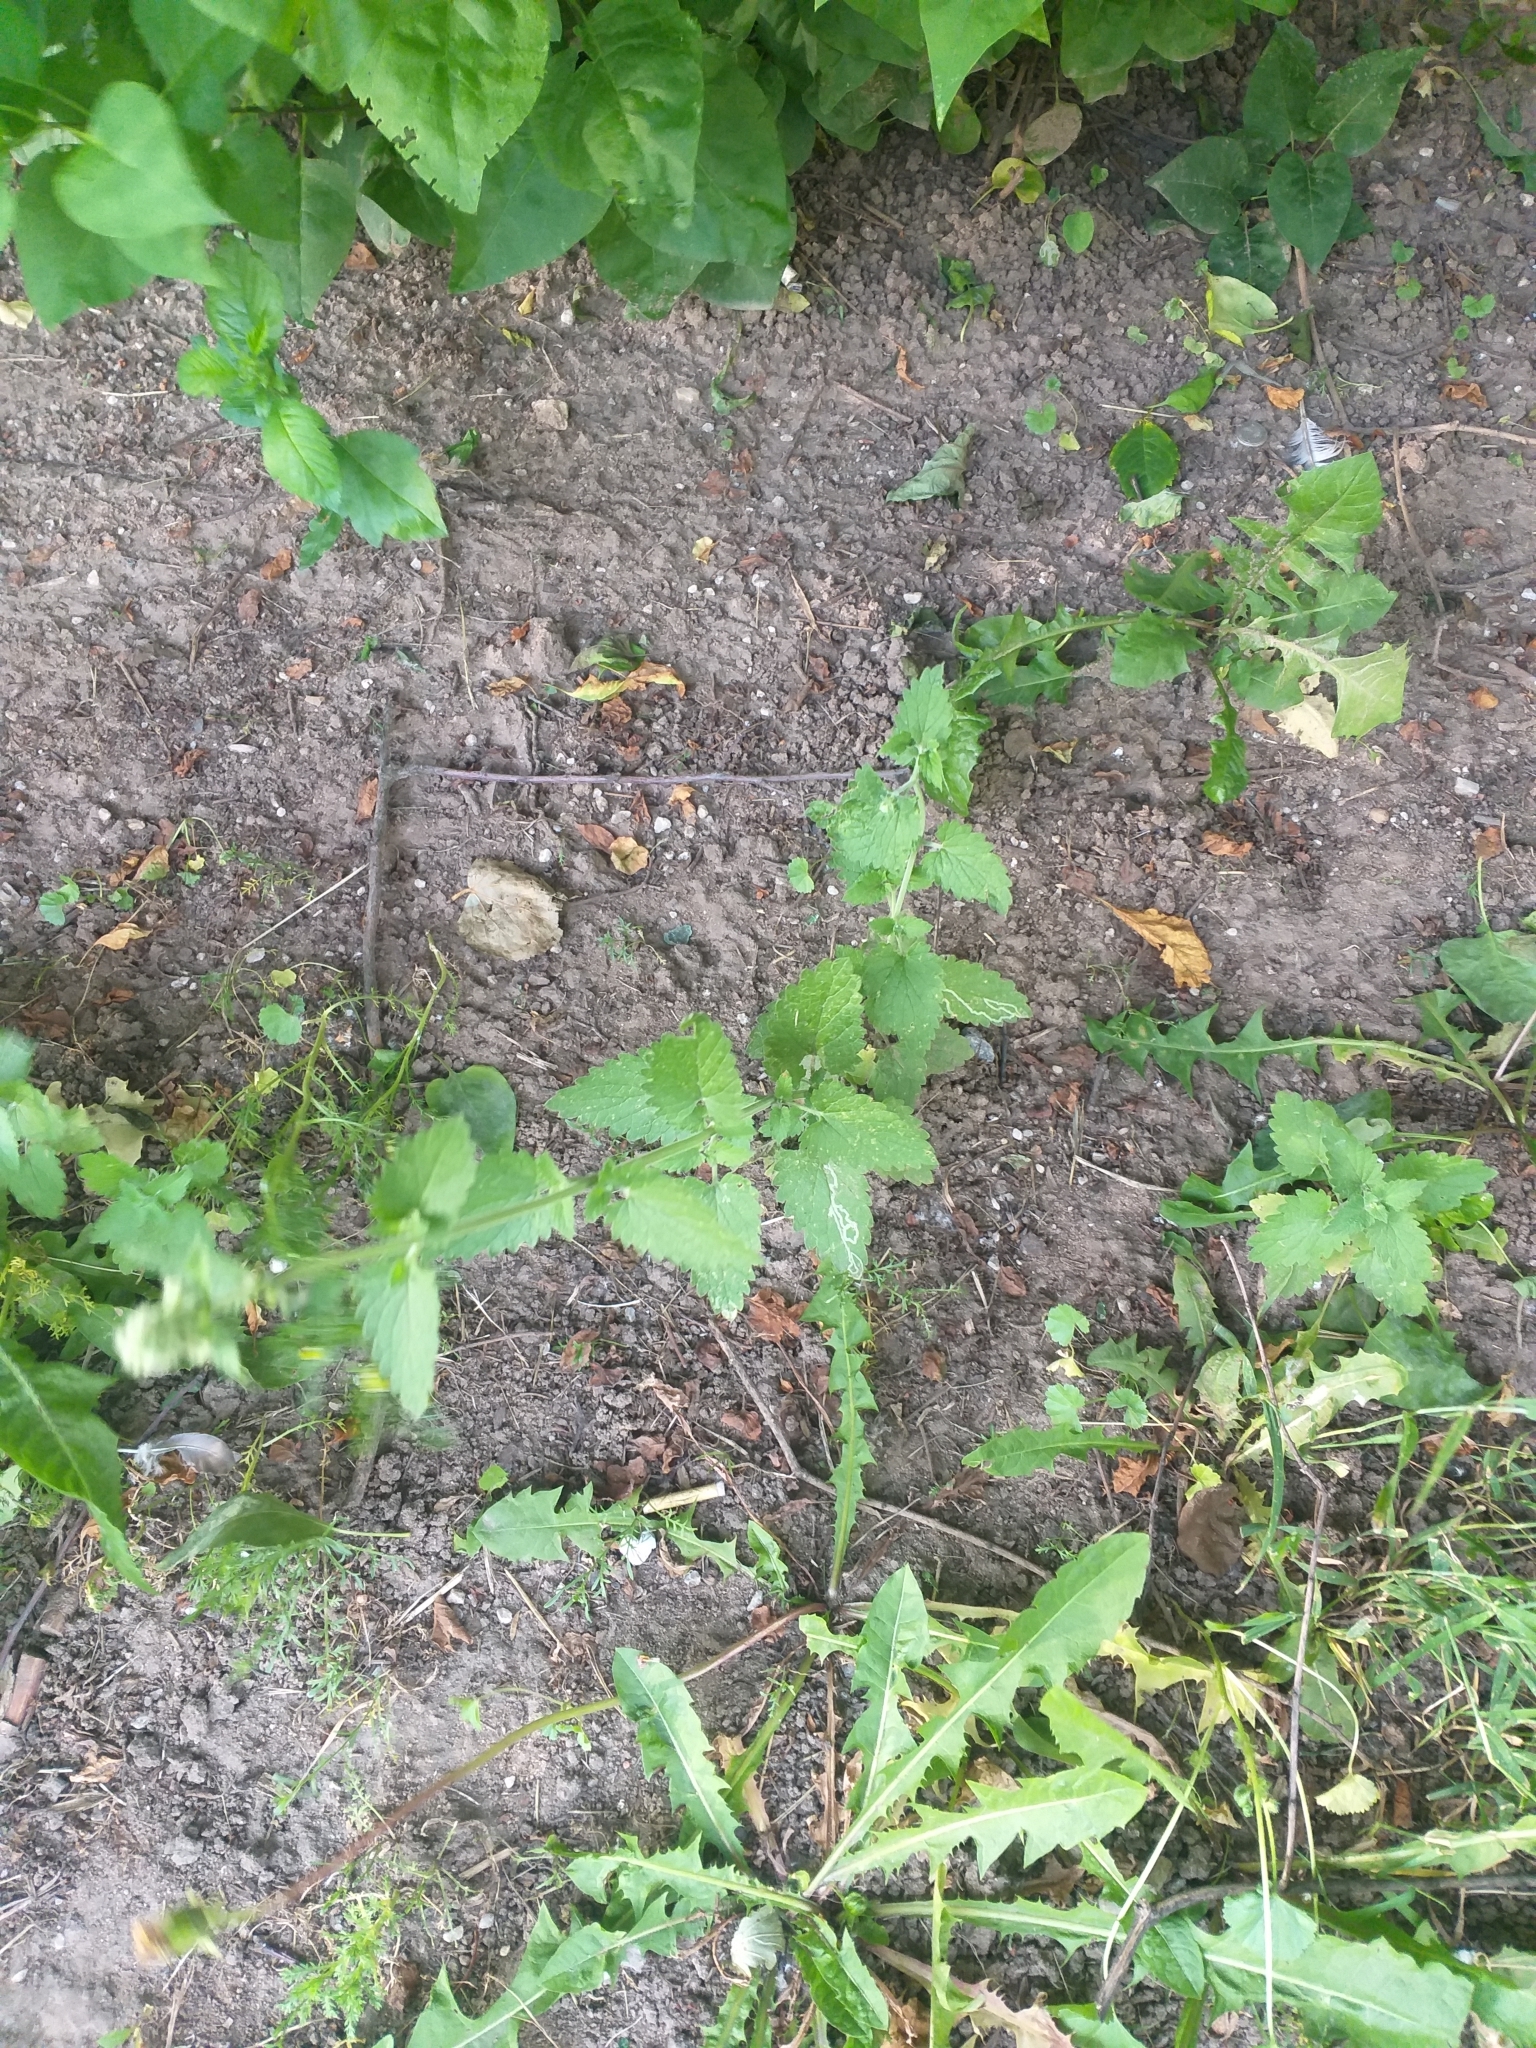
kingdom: Plantae
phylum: Tracheophyta
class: Magnoliopsida
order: Lamiales
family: Lamiaceae
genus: Nepeta
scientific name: Nepeta cataria
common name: Catnip
